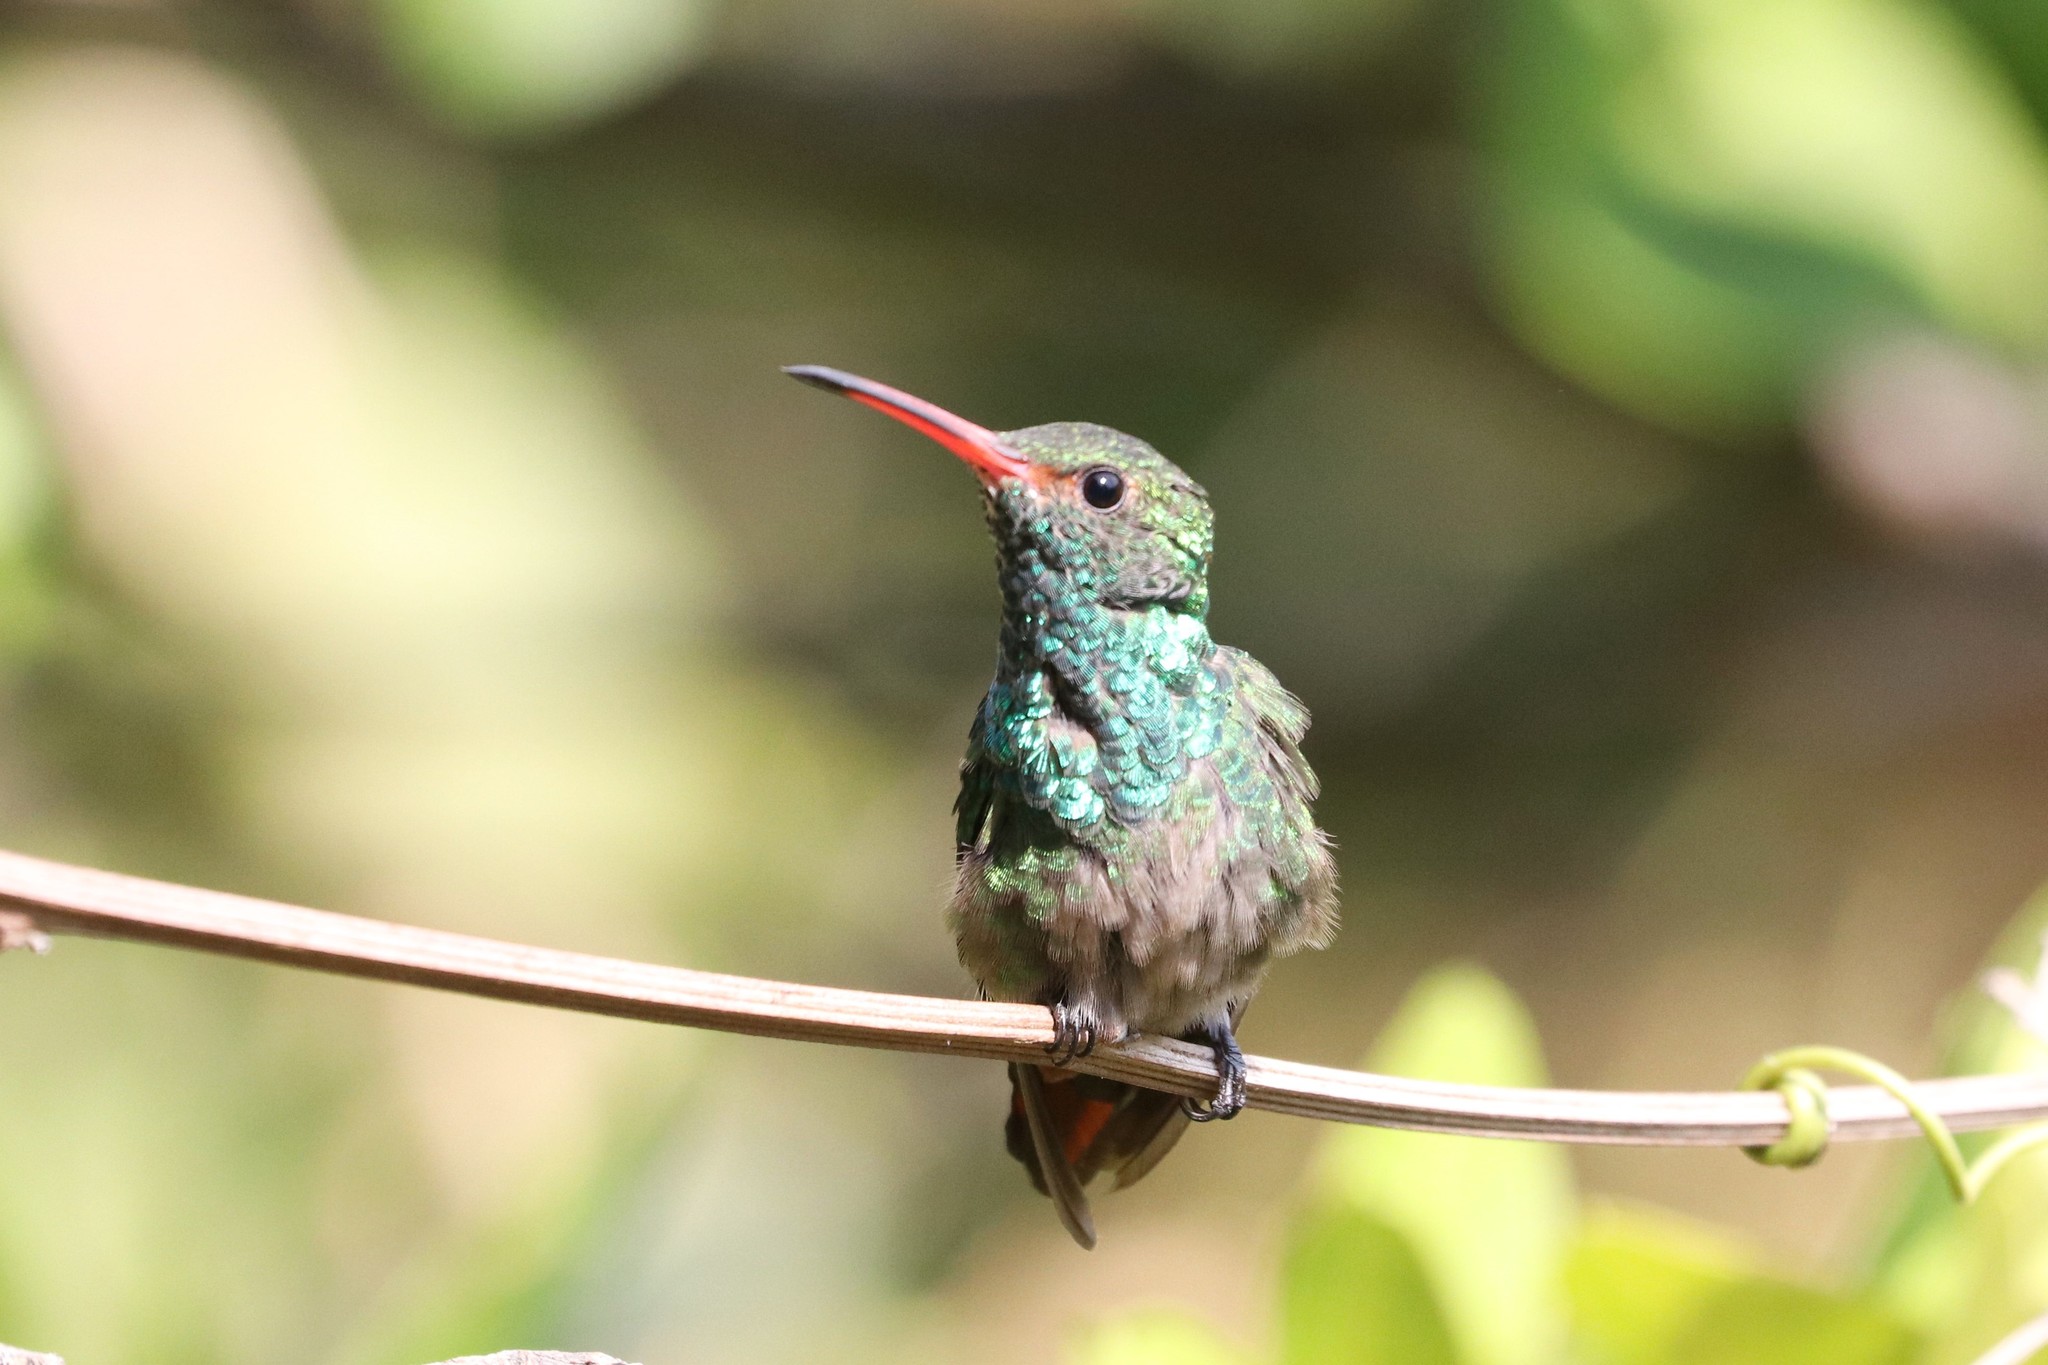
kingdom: Animalia
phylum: Chordata
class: Aves
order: Apodiformes
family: Trochilidae
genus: Amazilia
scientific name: Amazilia tzacatl
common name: Rufous-tailed hummingbird
